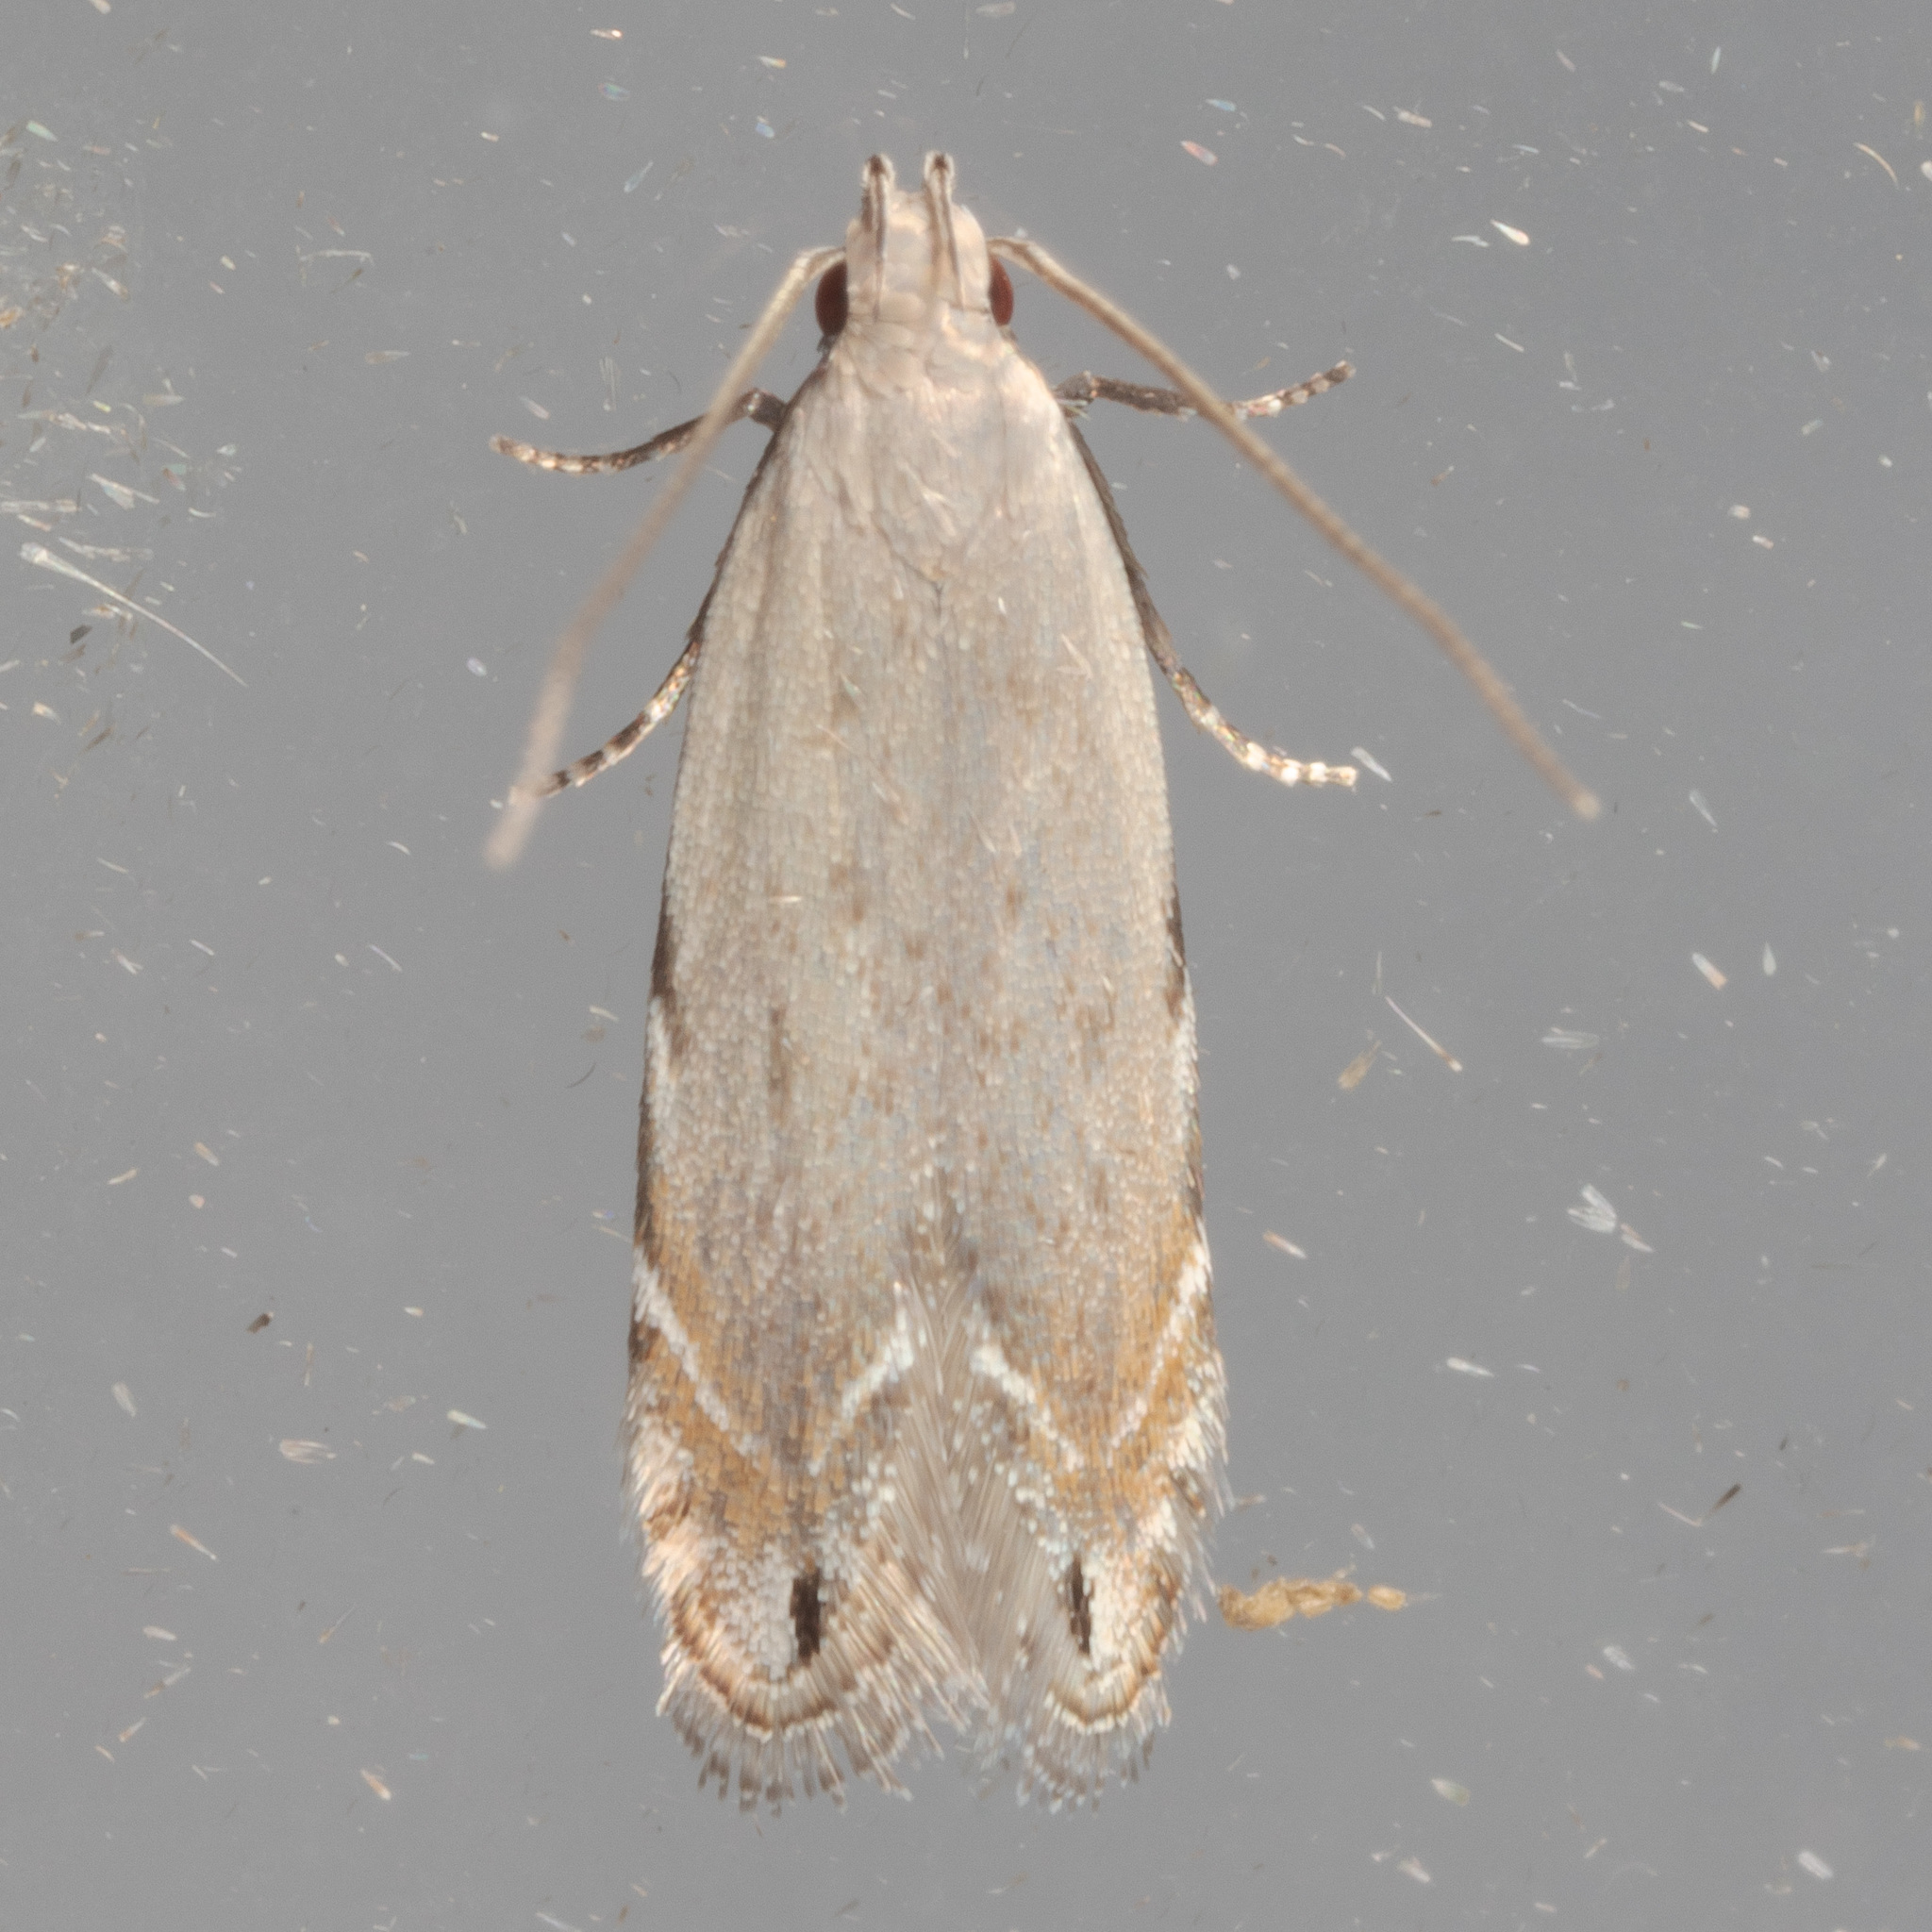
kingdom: Animalia
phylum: Arthropoda
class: Insecta
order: Lepidoptera
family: Gelechiidae
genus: Battaristis
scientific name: Battaristis concinnusella
